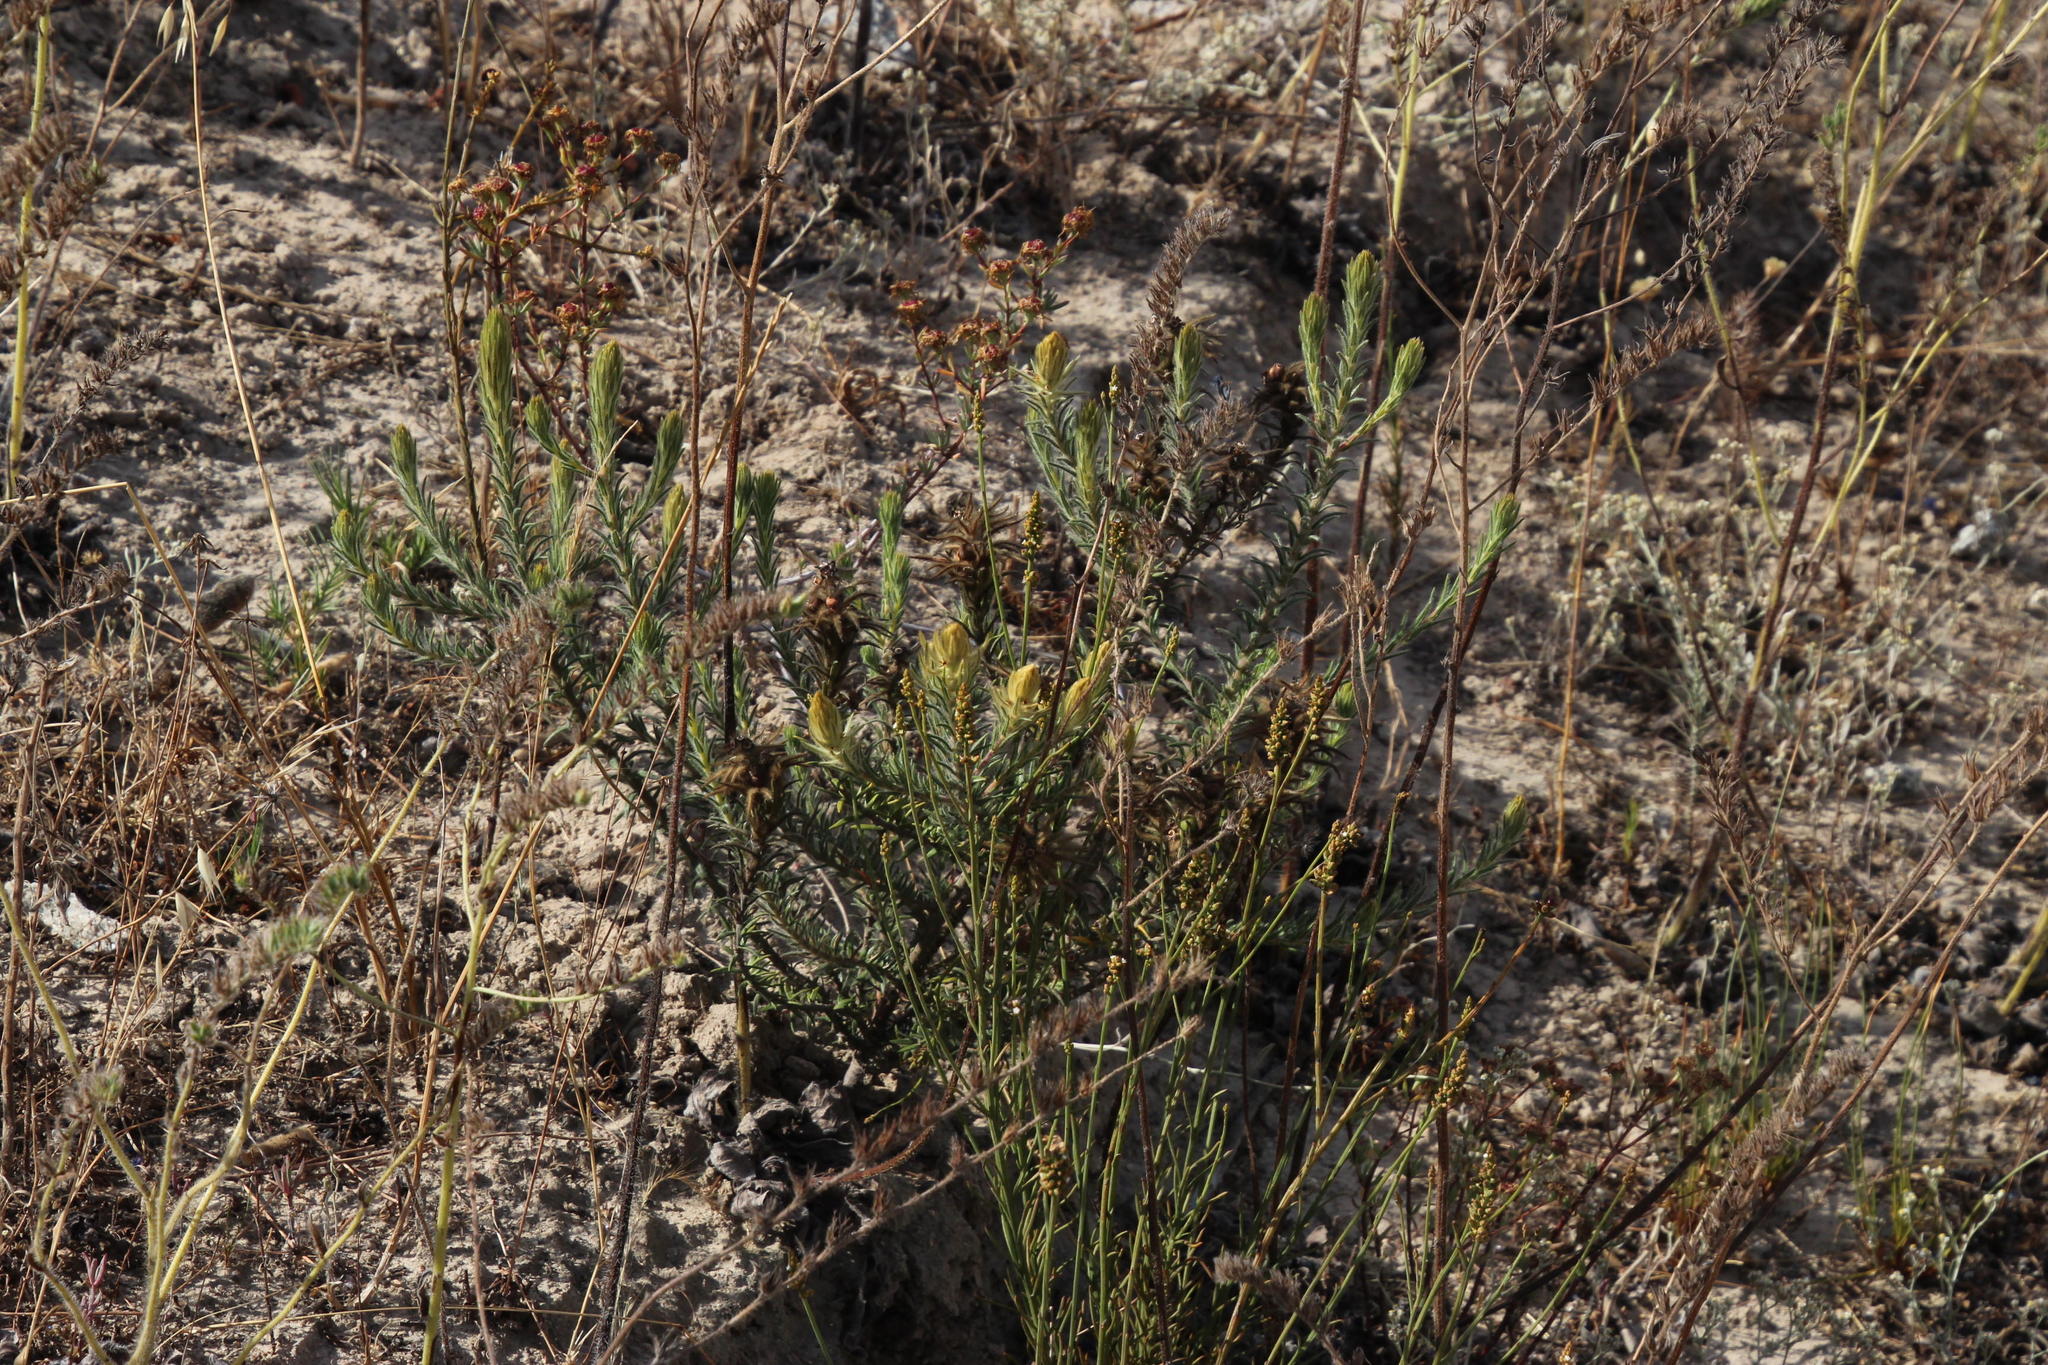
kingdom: Plantae
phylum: Tracheophyta
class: Magnoliopsida
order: Rosales
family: Rhamnaceae
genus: Phylica
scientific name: Phylica plumosa
